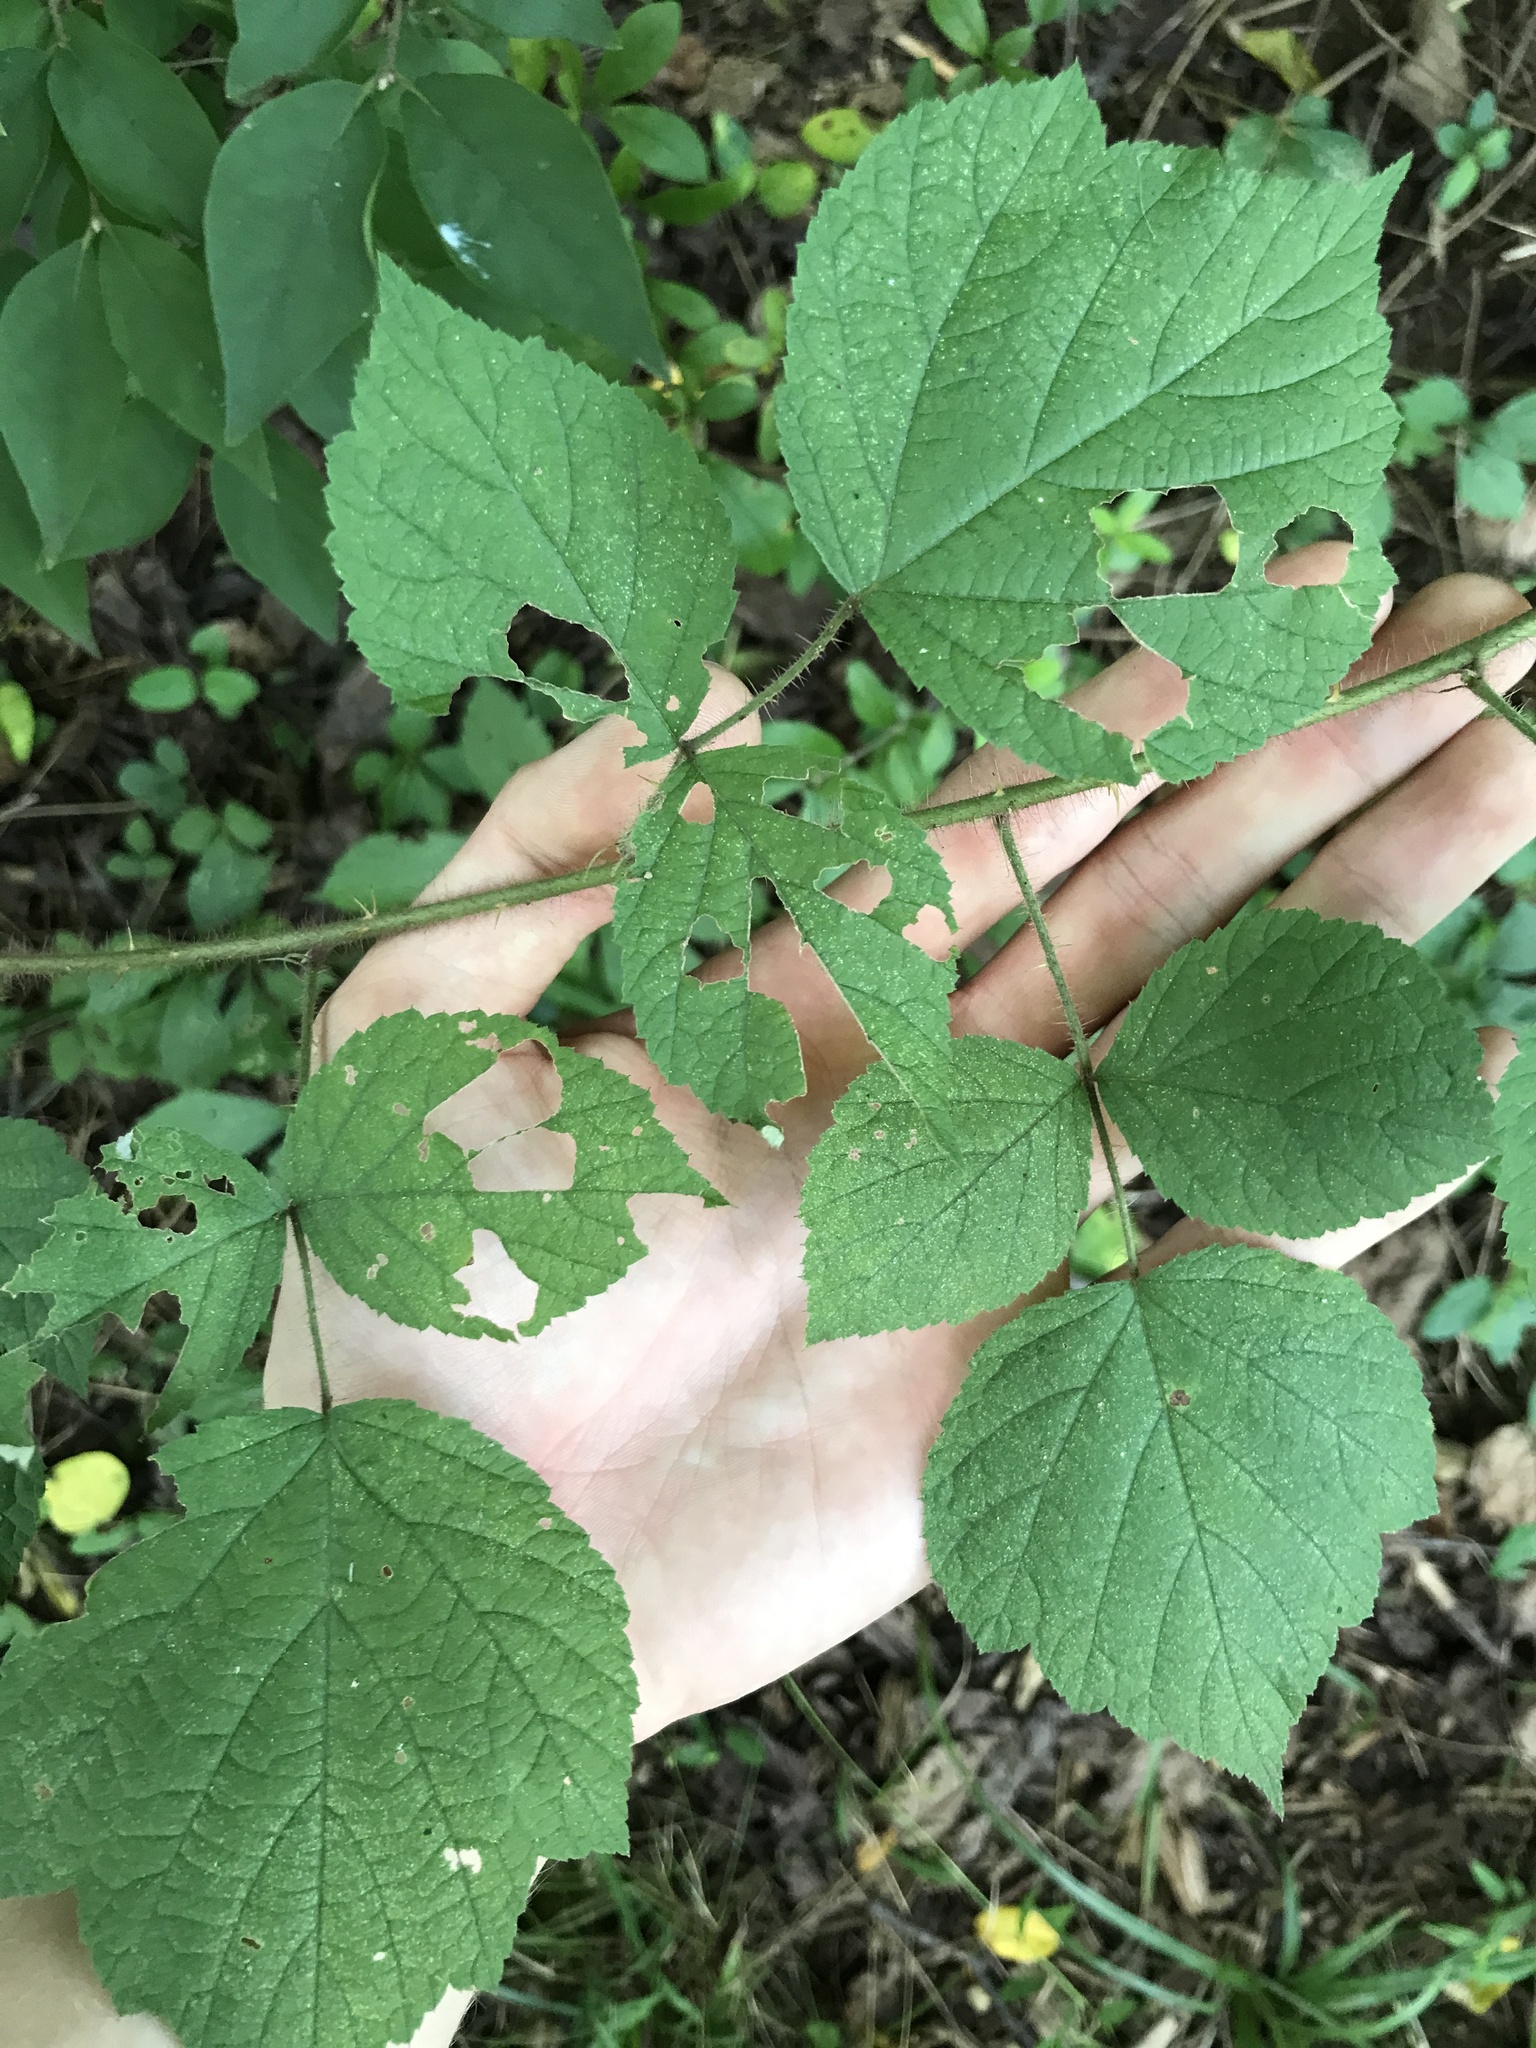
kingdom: Plantae
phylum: Tracheophyta
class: Magnoliopsida
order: Rosales
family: Rosaceae
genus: Rubus
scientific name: Rubus phoenicolasius
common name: Japanese wineberry
